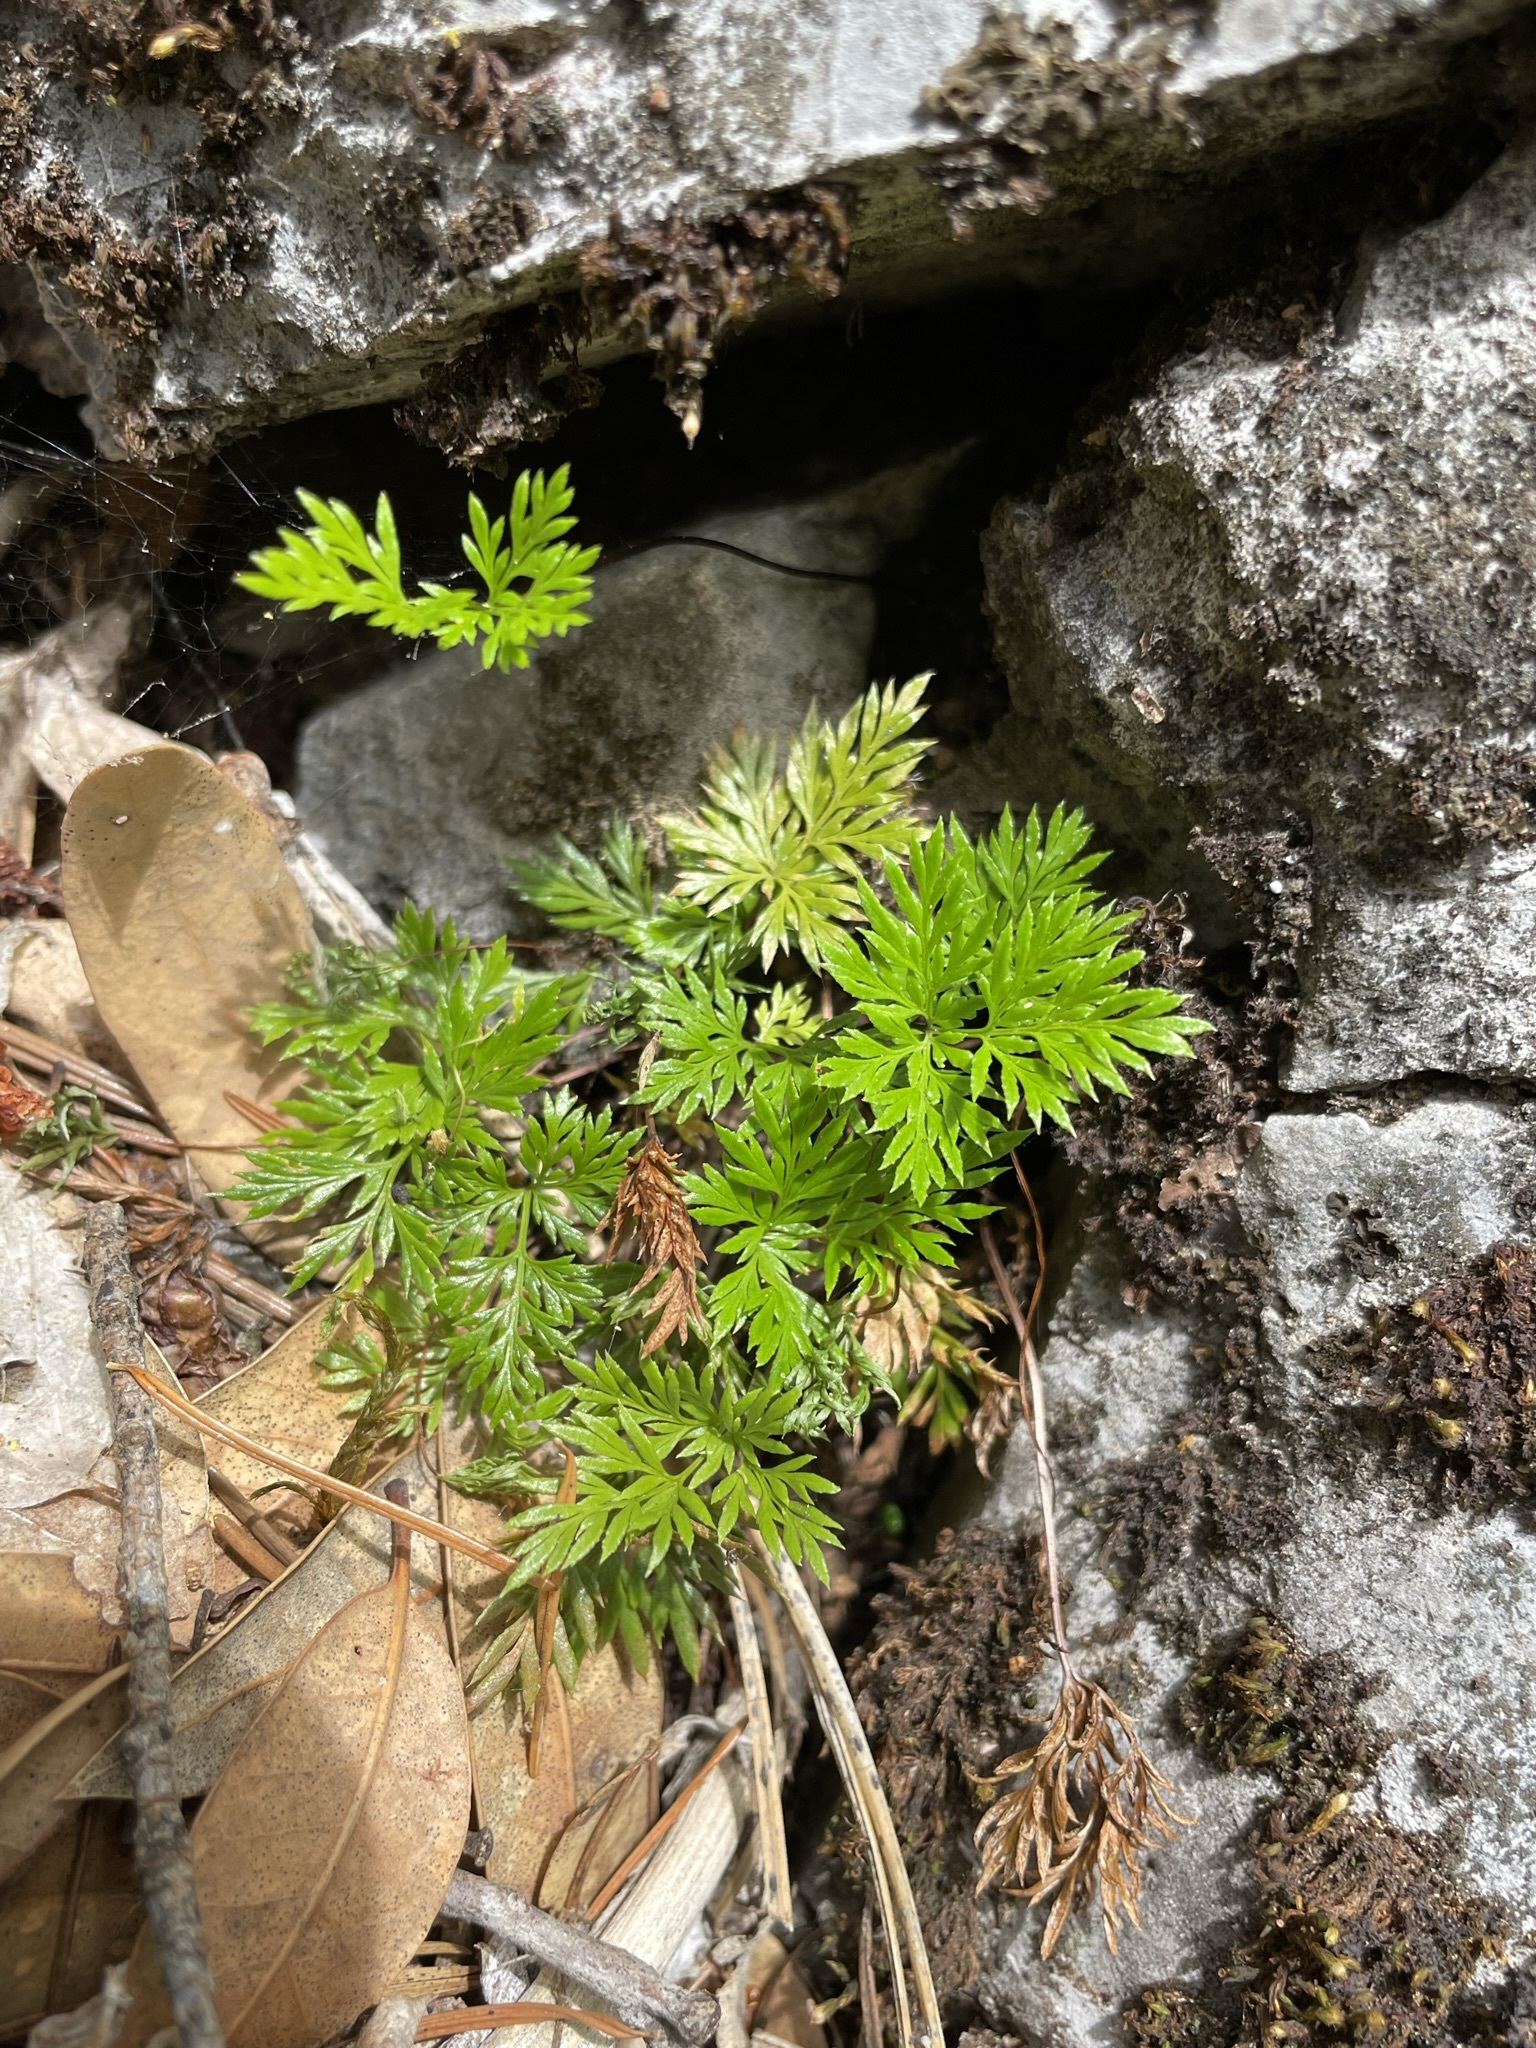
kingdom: Plantae
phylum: Tracheophyta
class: Polypodiopsida
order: Polypodiales
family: Pteridaceae
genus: Aspidotis
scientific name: Aspidotis densa
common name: Indian's dream
